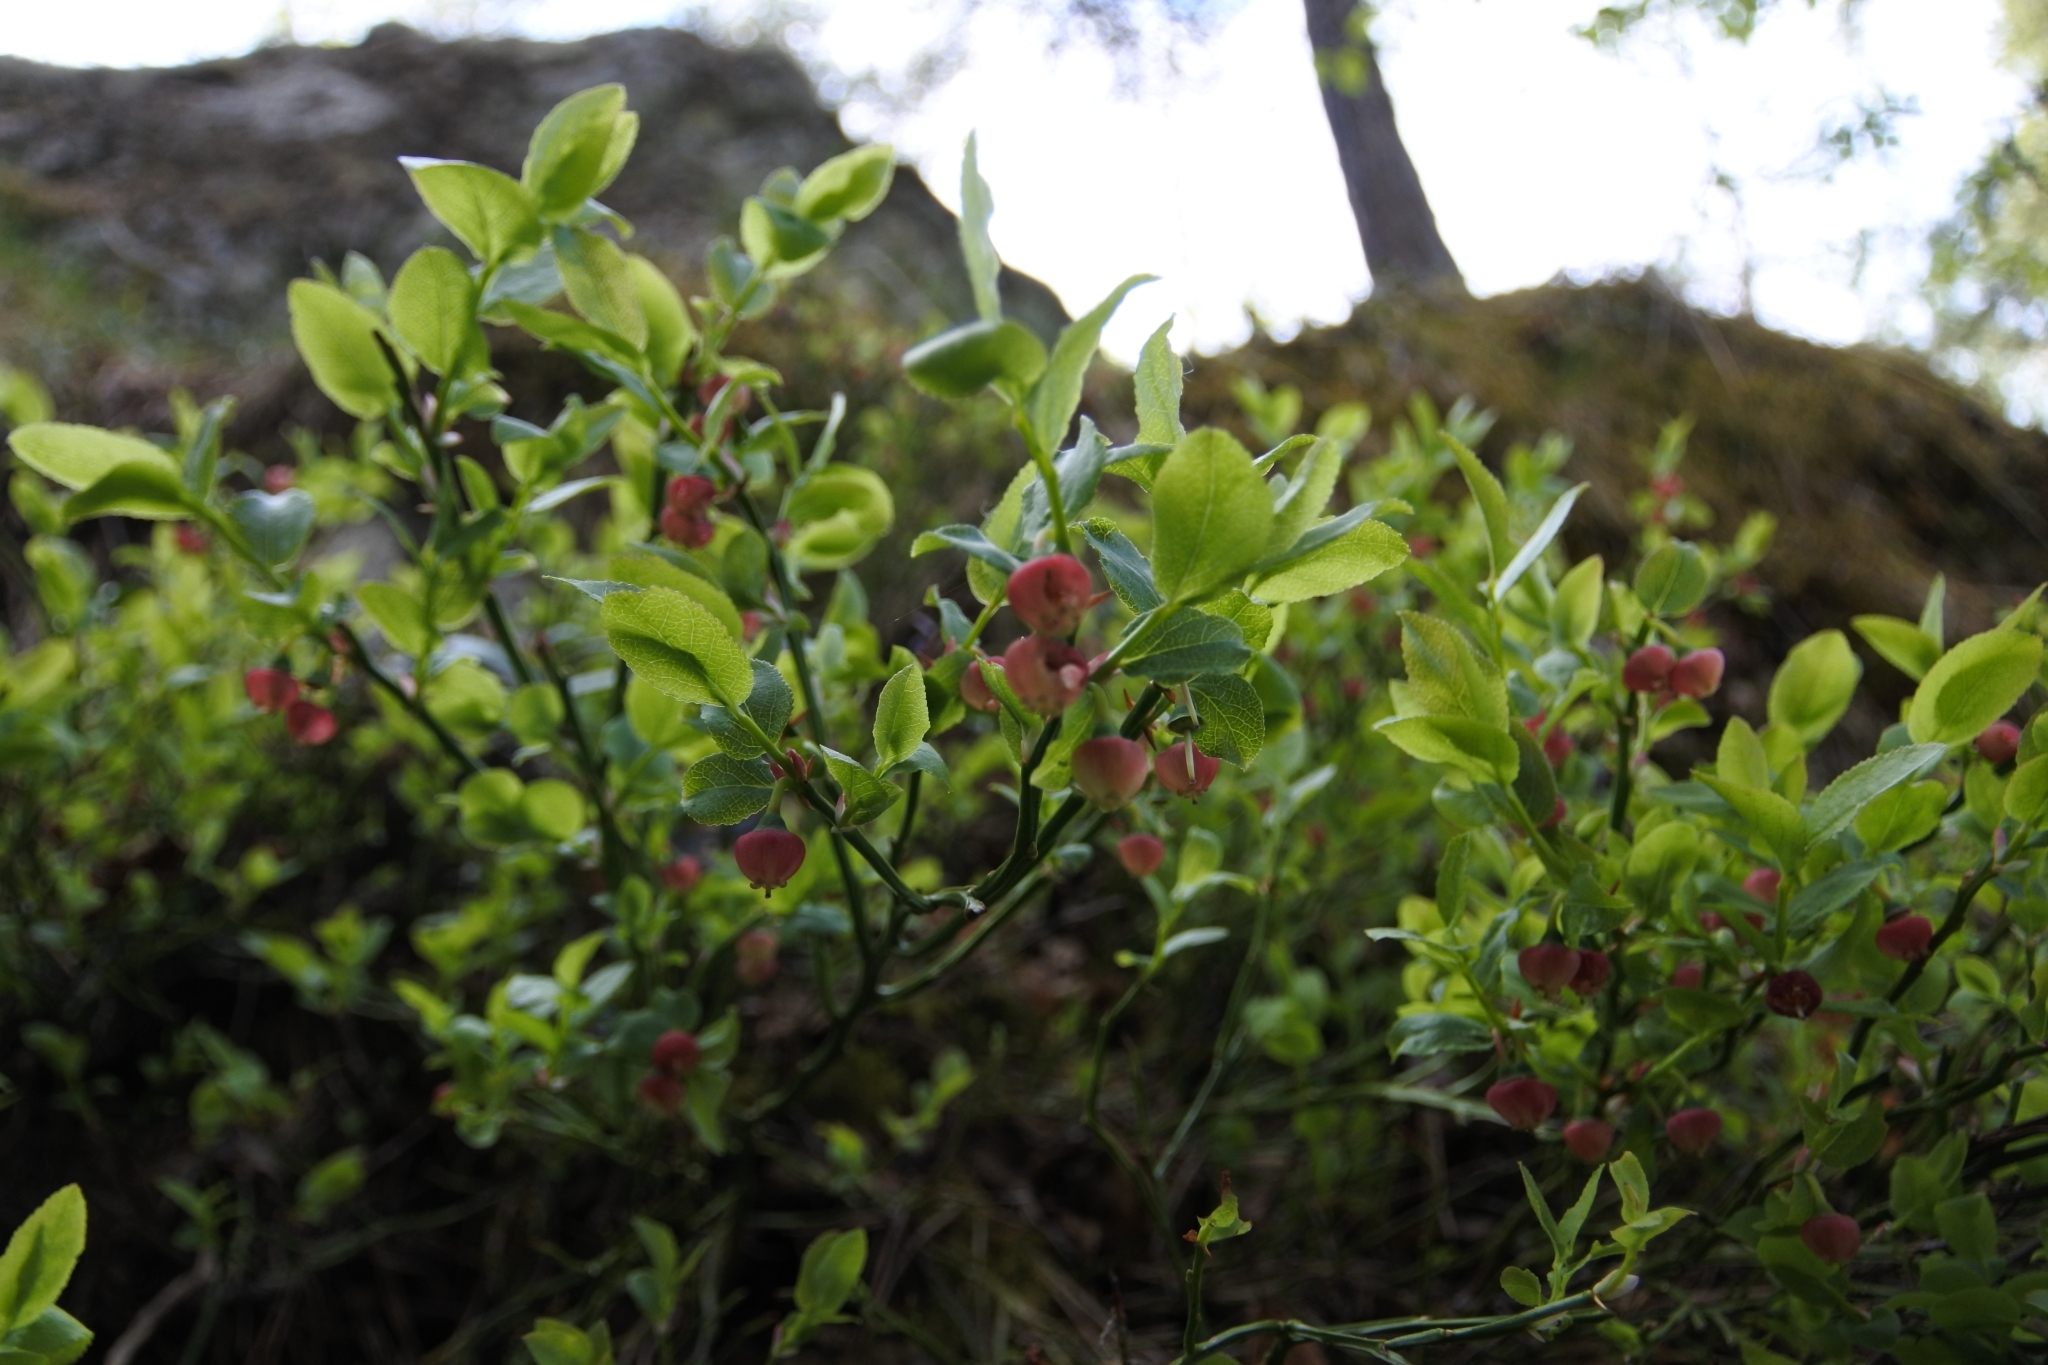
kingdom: Plantae
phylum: Tracheophyta
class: Magnoliopsida
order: Ericales
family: Ericaceae
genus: Vaccinium
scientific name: Vaccinium myrtillus
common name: Bilberry
